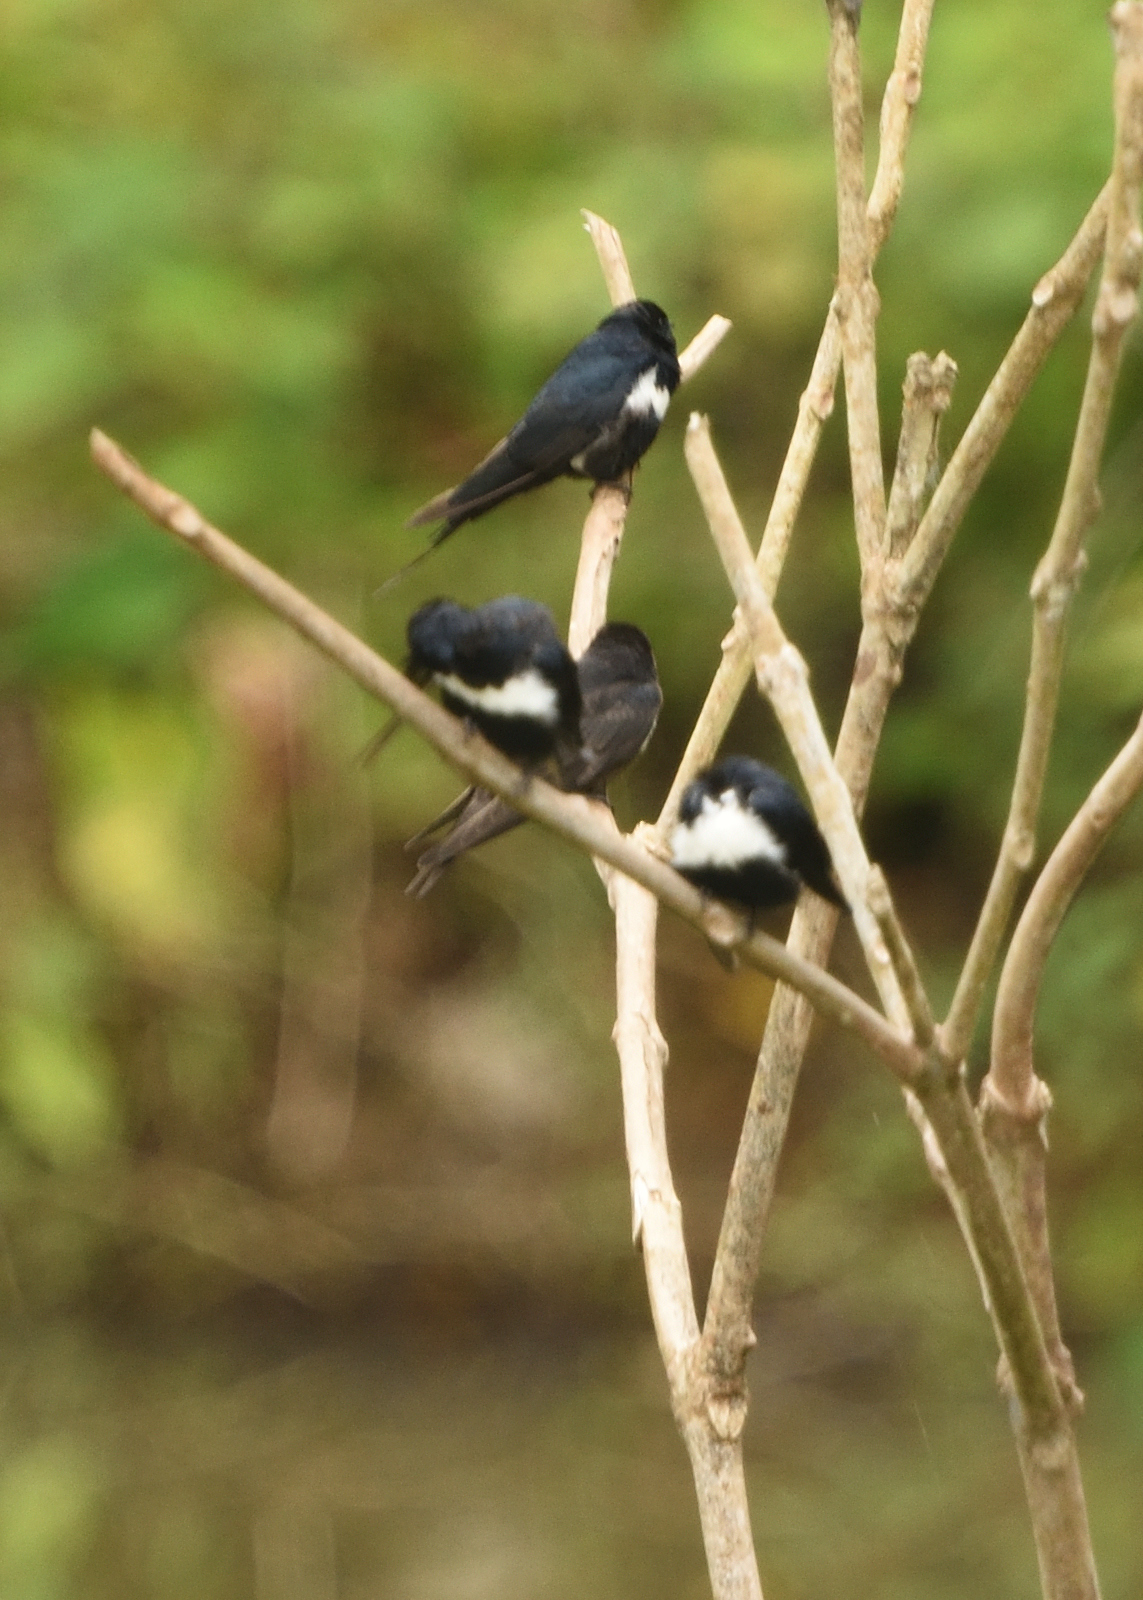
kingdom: Animalia
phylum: Chordata
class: Aves
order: Passeriformes
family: Hirundinidae
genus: Atticora
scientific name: Atticora fasciata
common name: White-banded swallow
